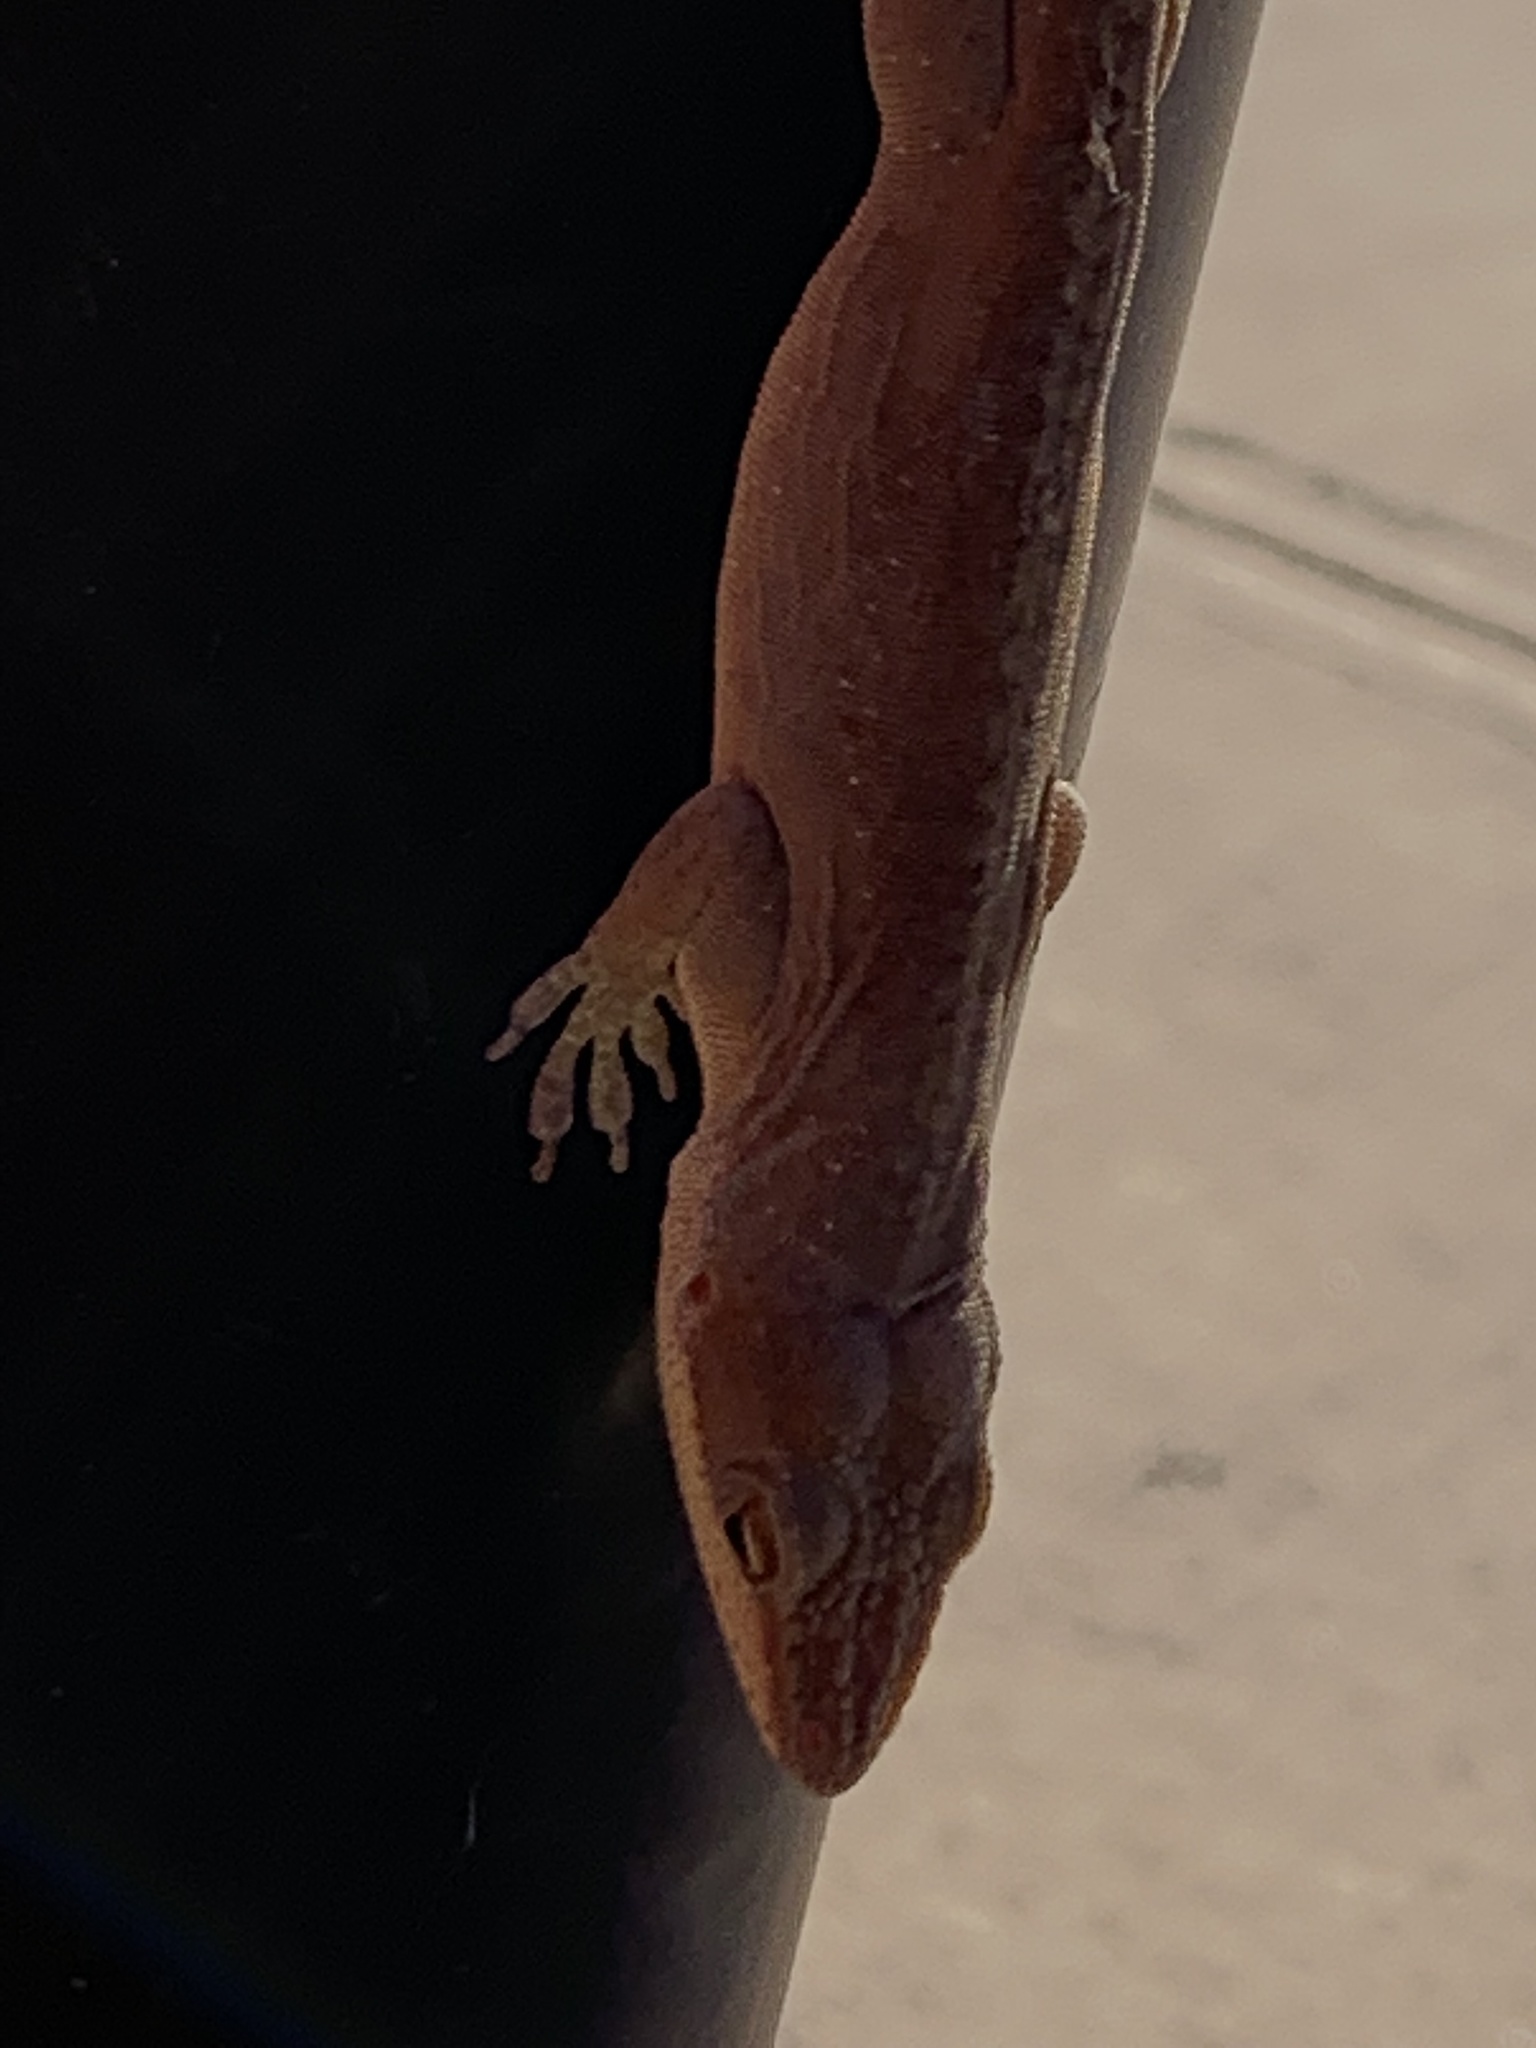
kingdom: Animalia
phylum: Chordata
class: Squamata
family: Dactyloidae
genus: Anolis
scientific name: Anolis carolinensis
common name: Green anole
